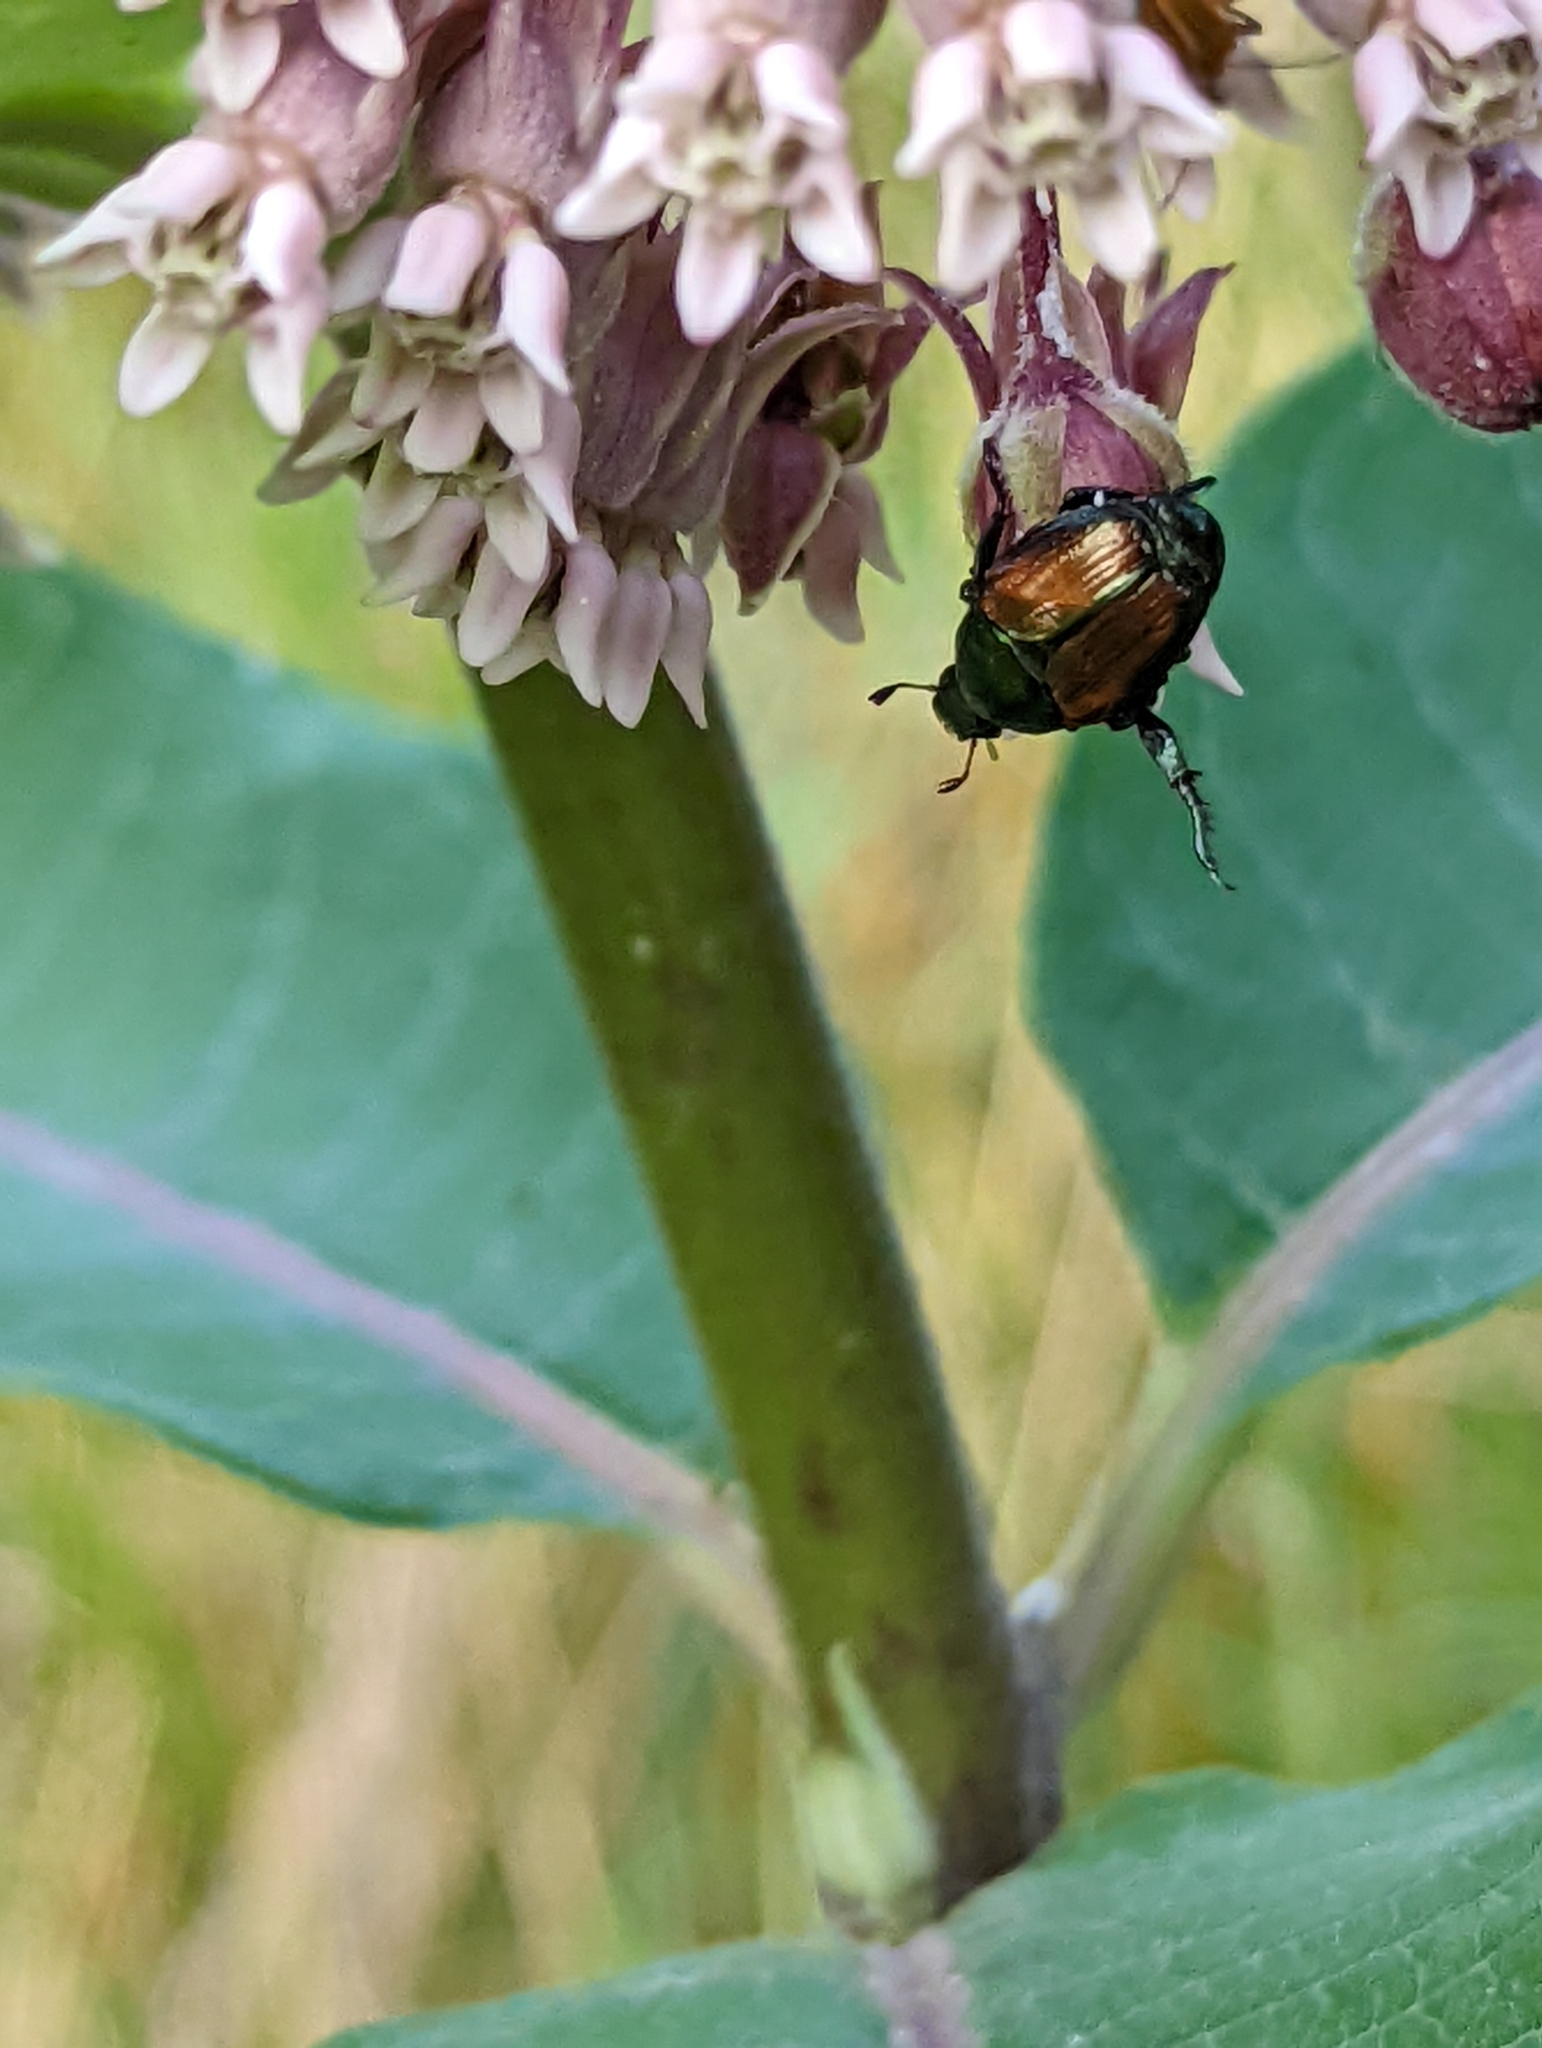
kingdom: Animalia
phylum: Arthropoda
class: Insecta
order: Coleoptera
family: Scarabaeidae
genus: Popillia
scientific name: Popillia japonica
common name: Japanese beetle
